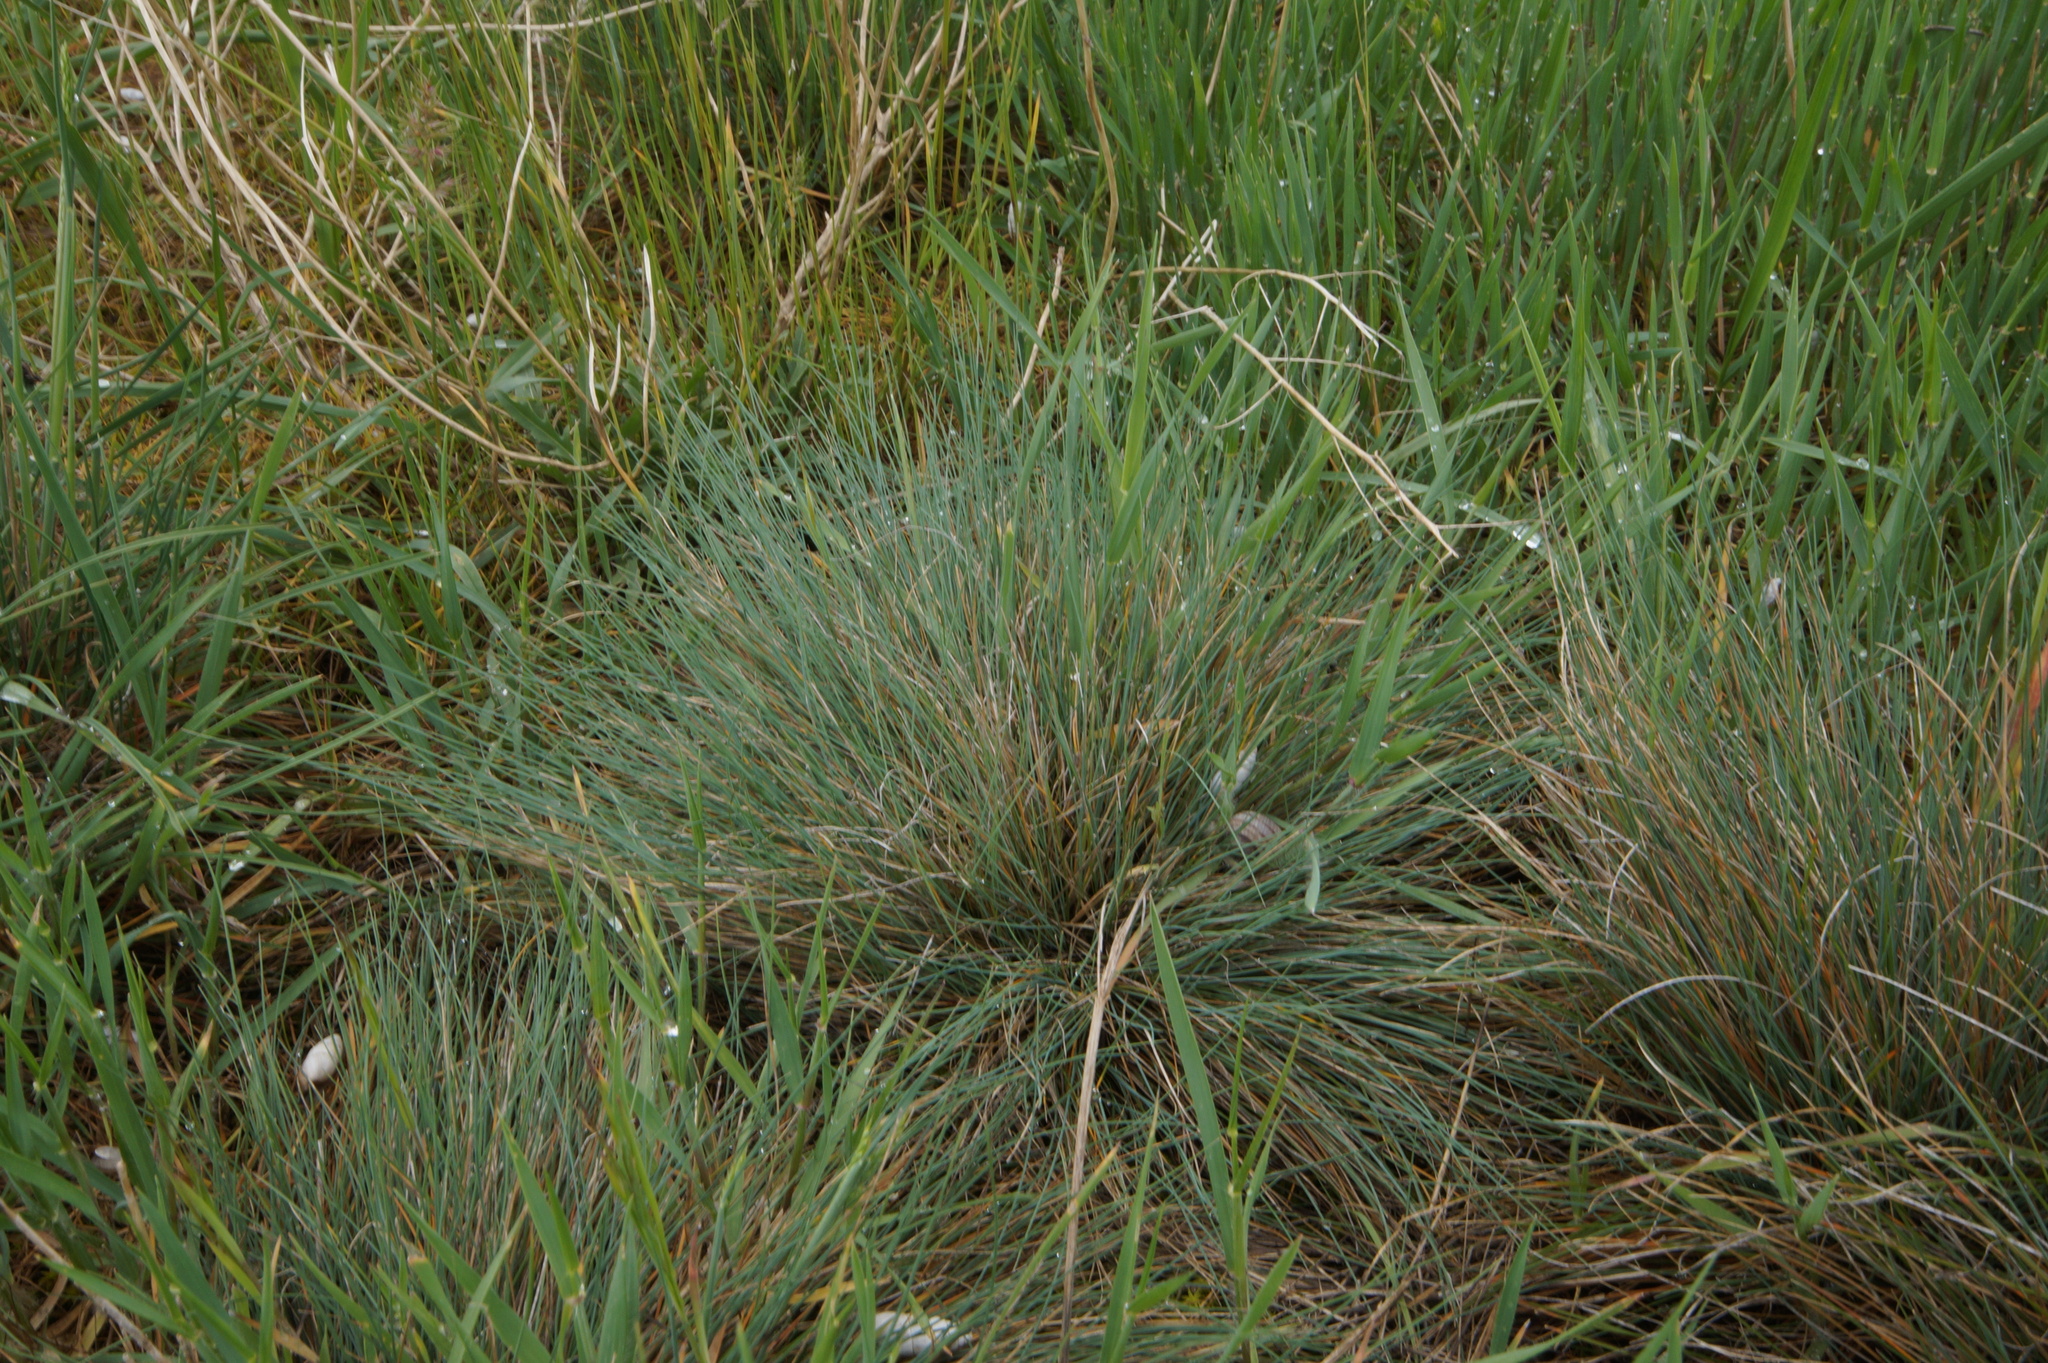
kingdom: Plantae
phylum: Tracheophyta
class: Liliopsida
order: Poales
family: Poaceae
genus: Festuca
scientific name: Festuca valesiaca
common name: Volga fescue
